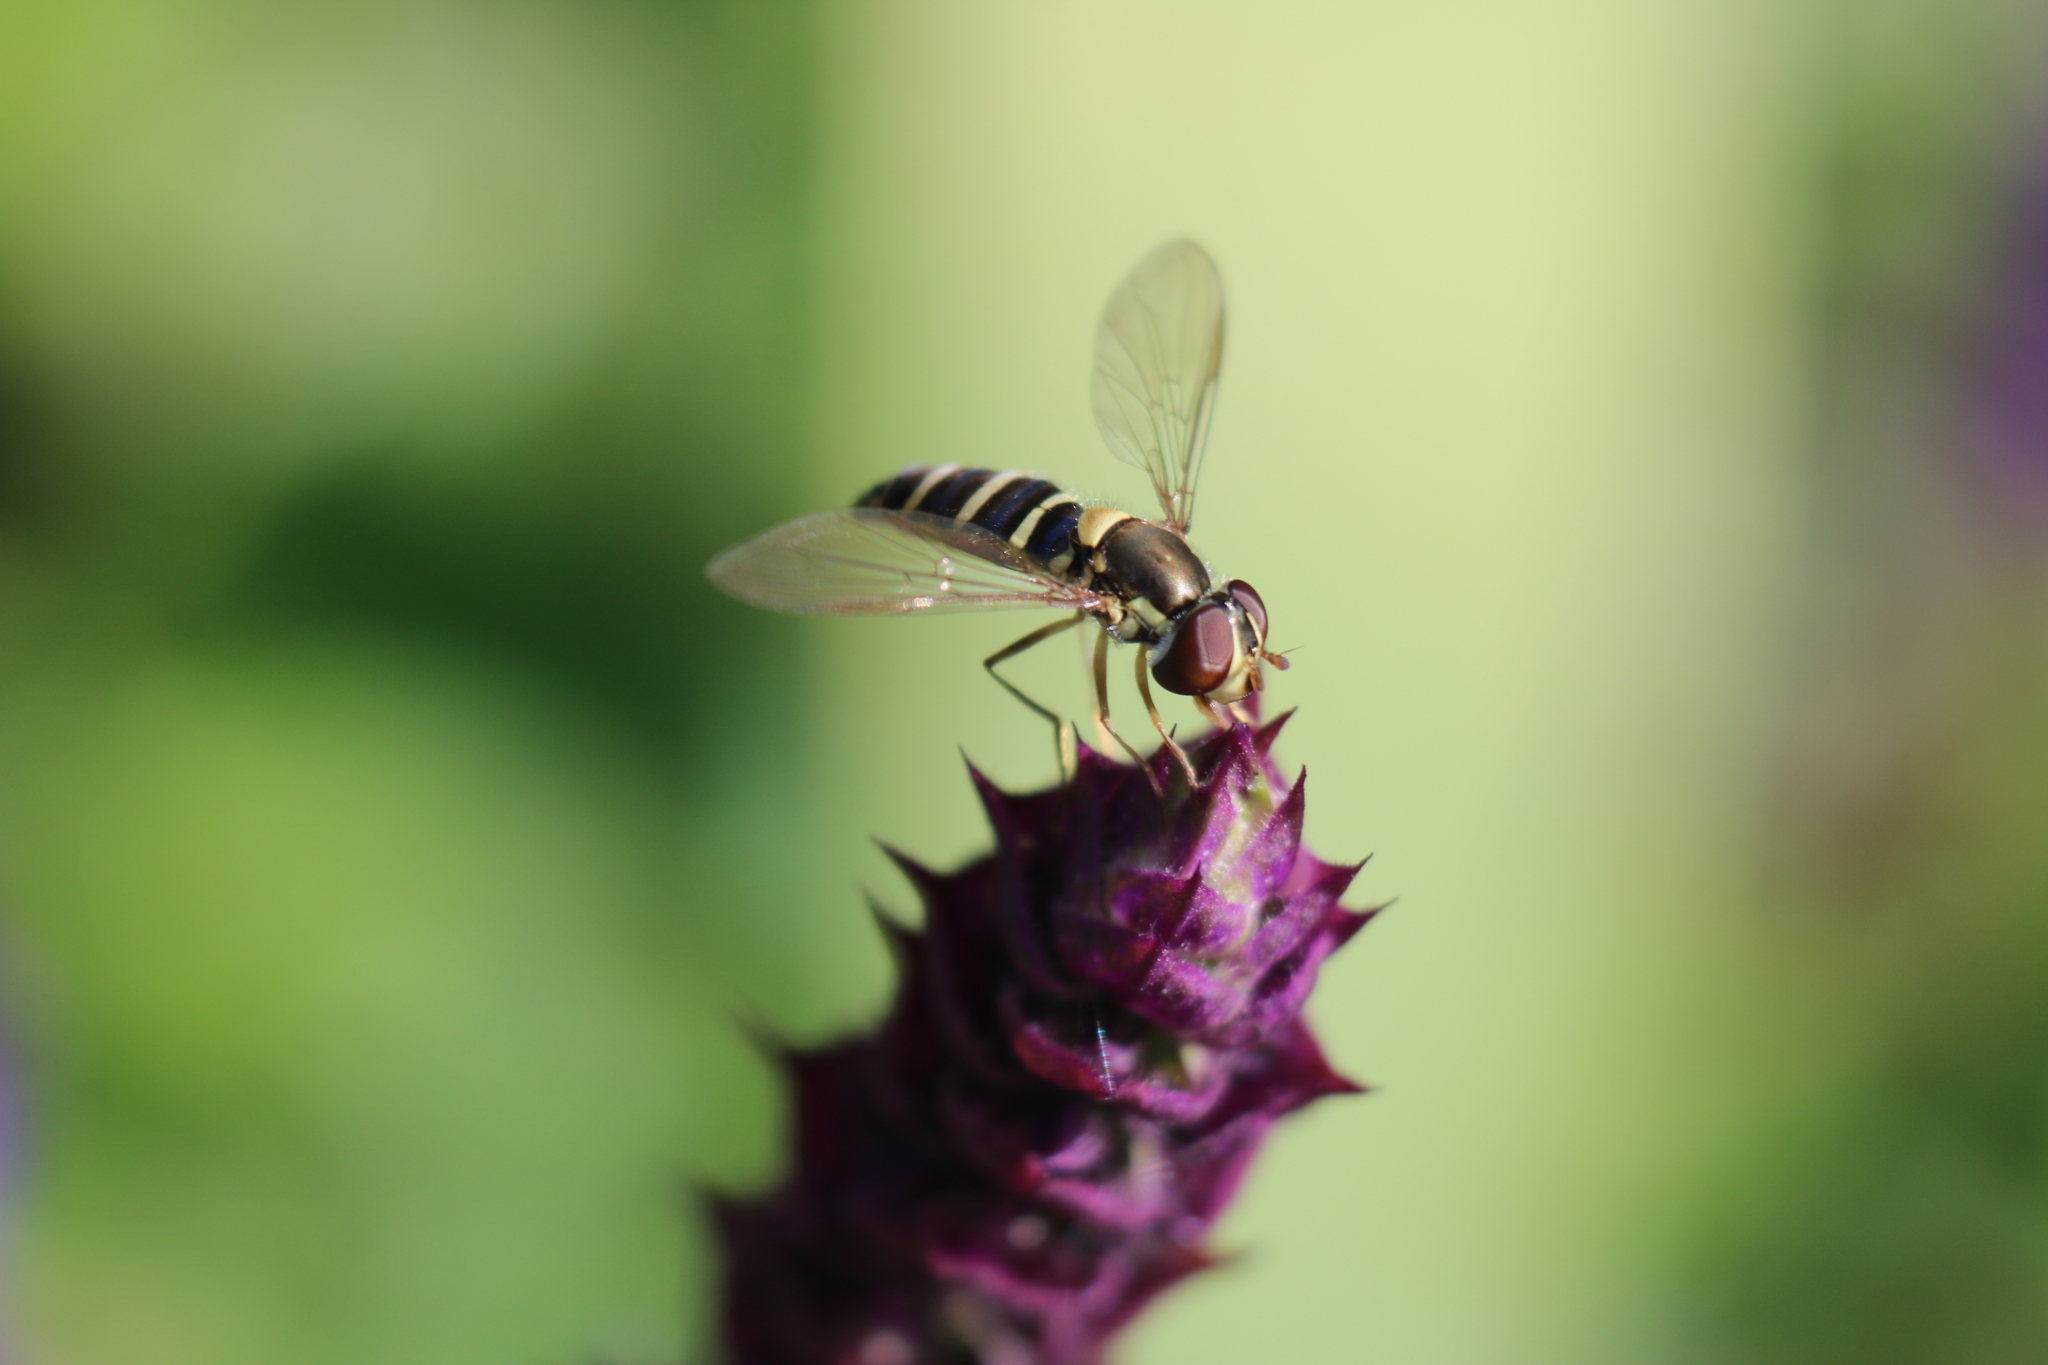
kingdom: Animalia
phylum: Arthropoda
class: Insecta
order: Diptera
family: Syrphidae
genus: Fazia
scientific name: Fazia micrura
